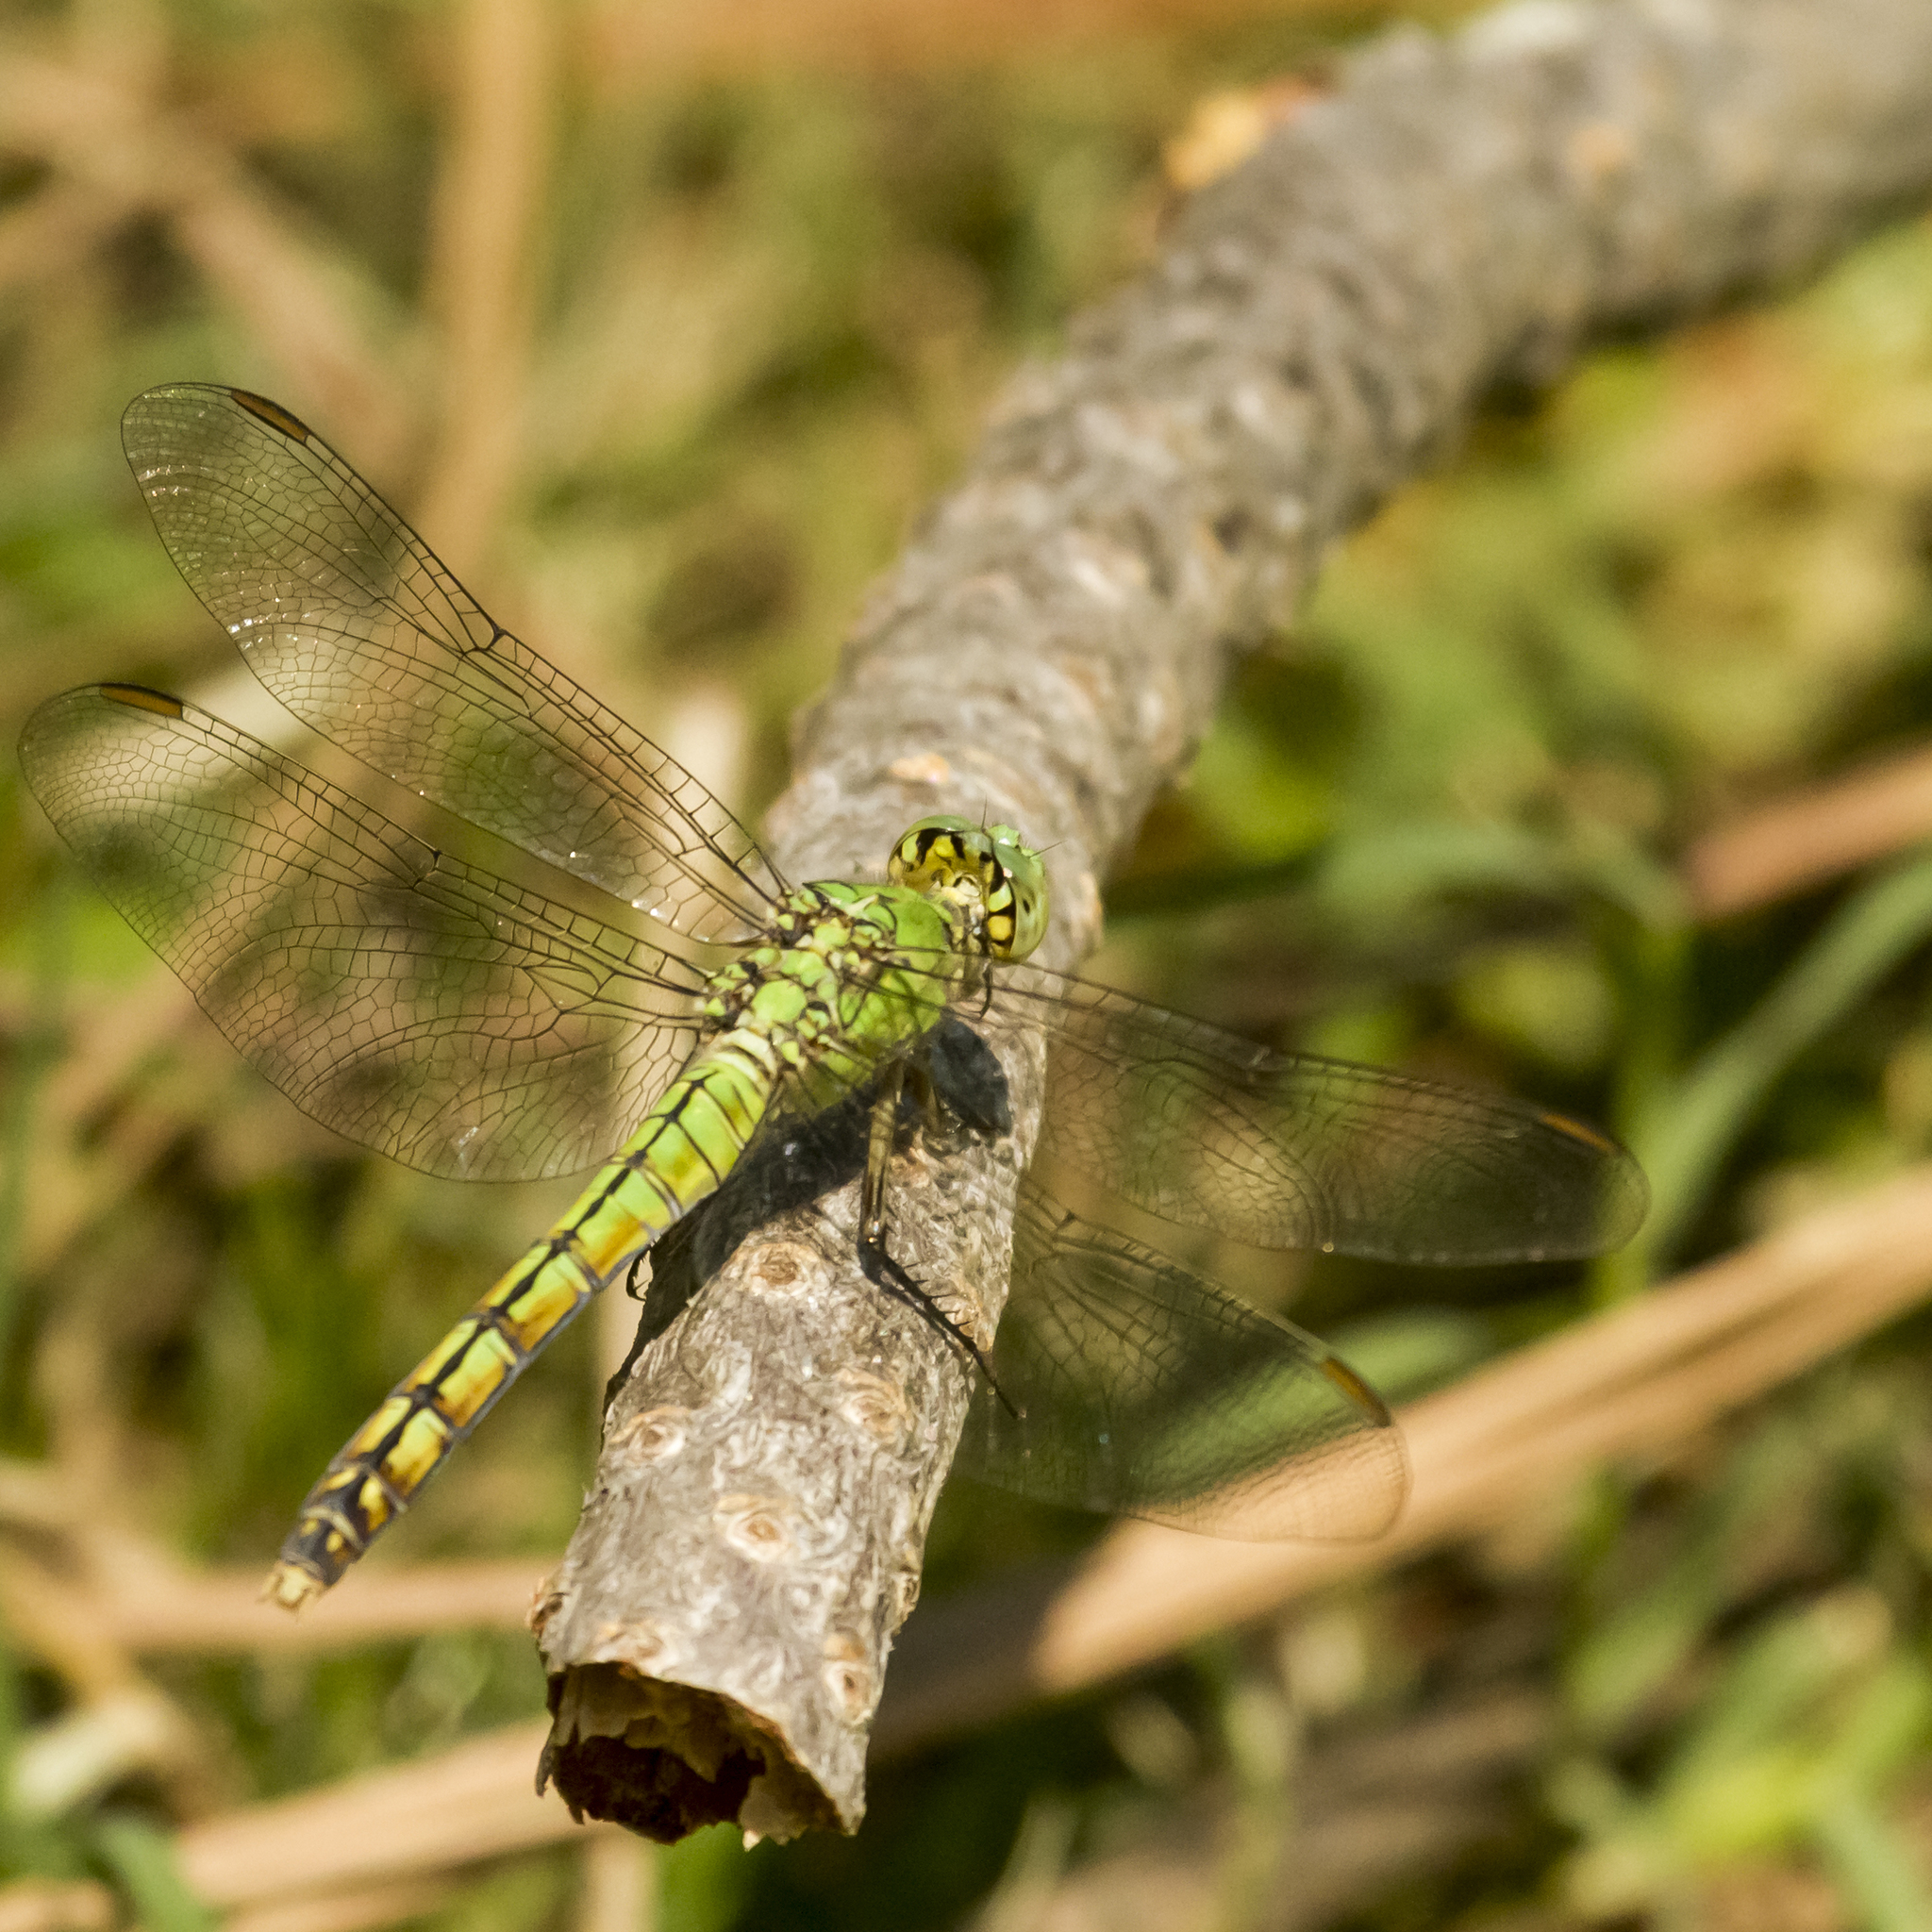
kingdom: Animalia
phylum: Arthropoda
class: Insecta
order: Odonata
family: Libellulidae
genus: Erythemis
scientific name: Erythemis collocata
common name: Western pondhawk
